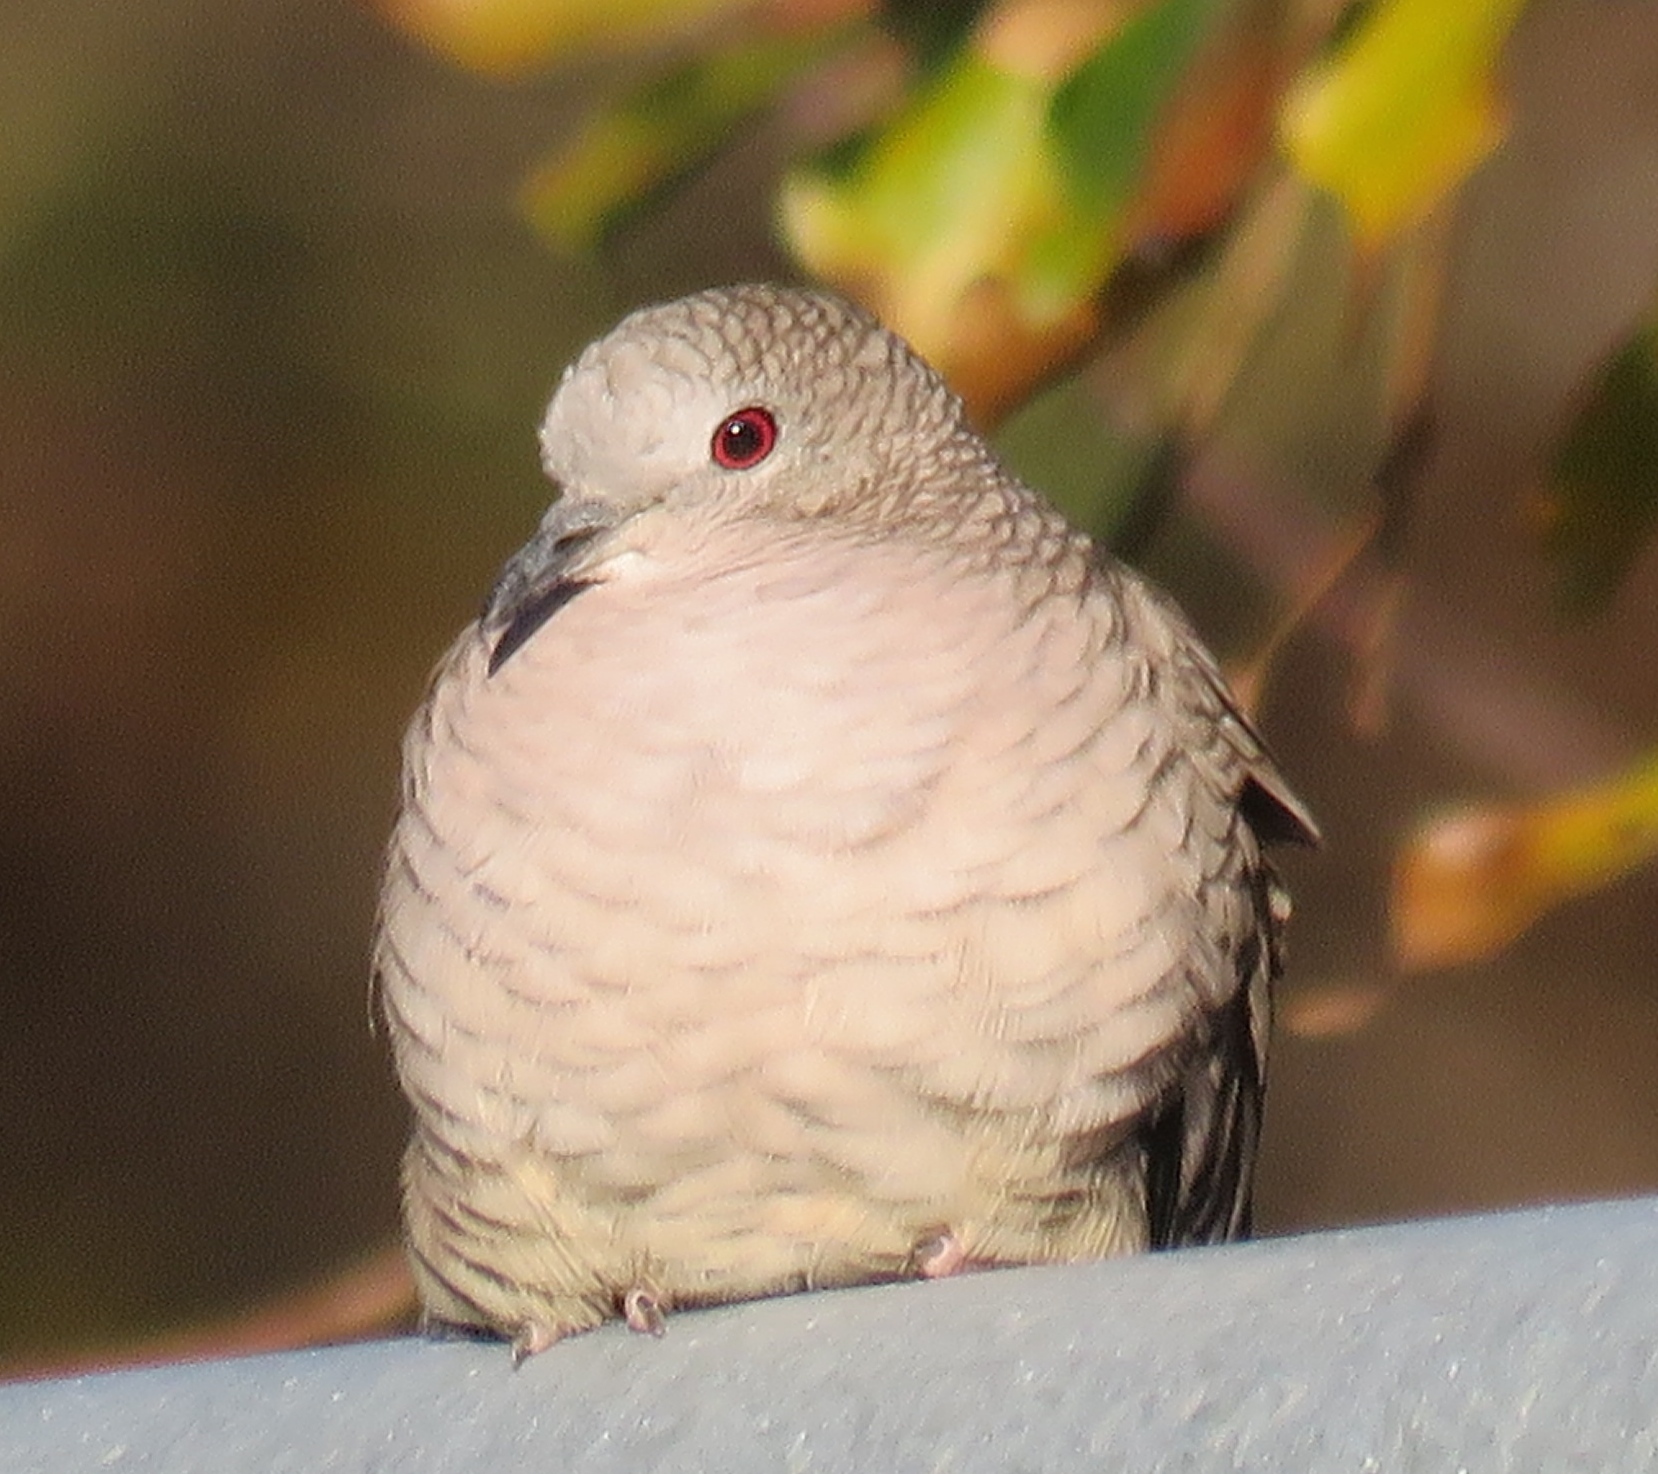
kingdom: Animalia
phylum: Chordata
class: Aves
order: Columbiformes
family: Columbidae
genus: Columbina
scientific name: Columbina inca
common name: Inca dove
